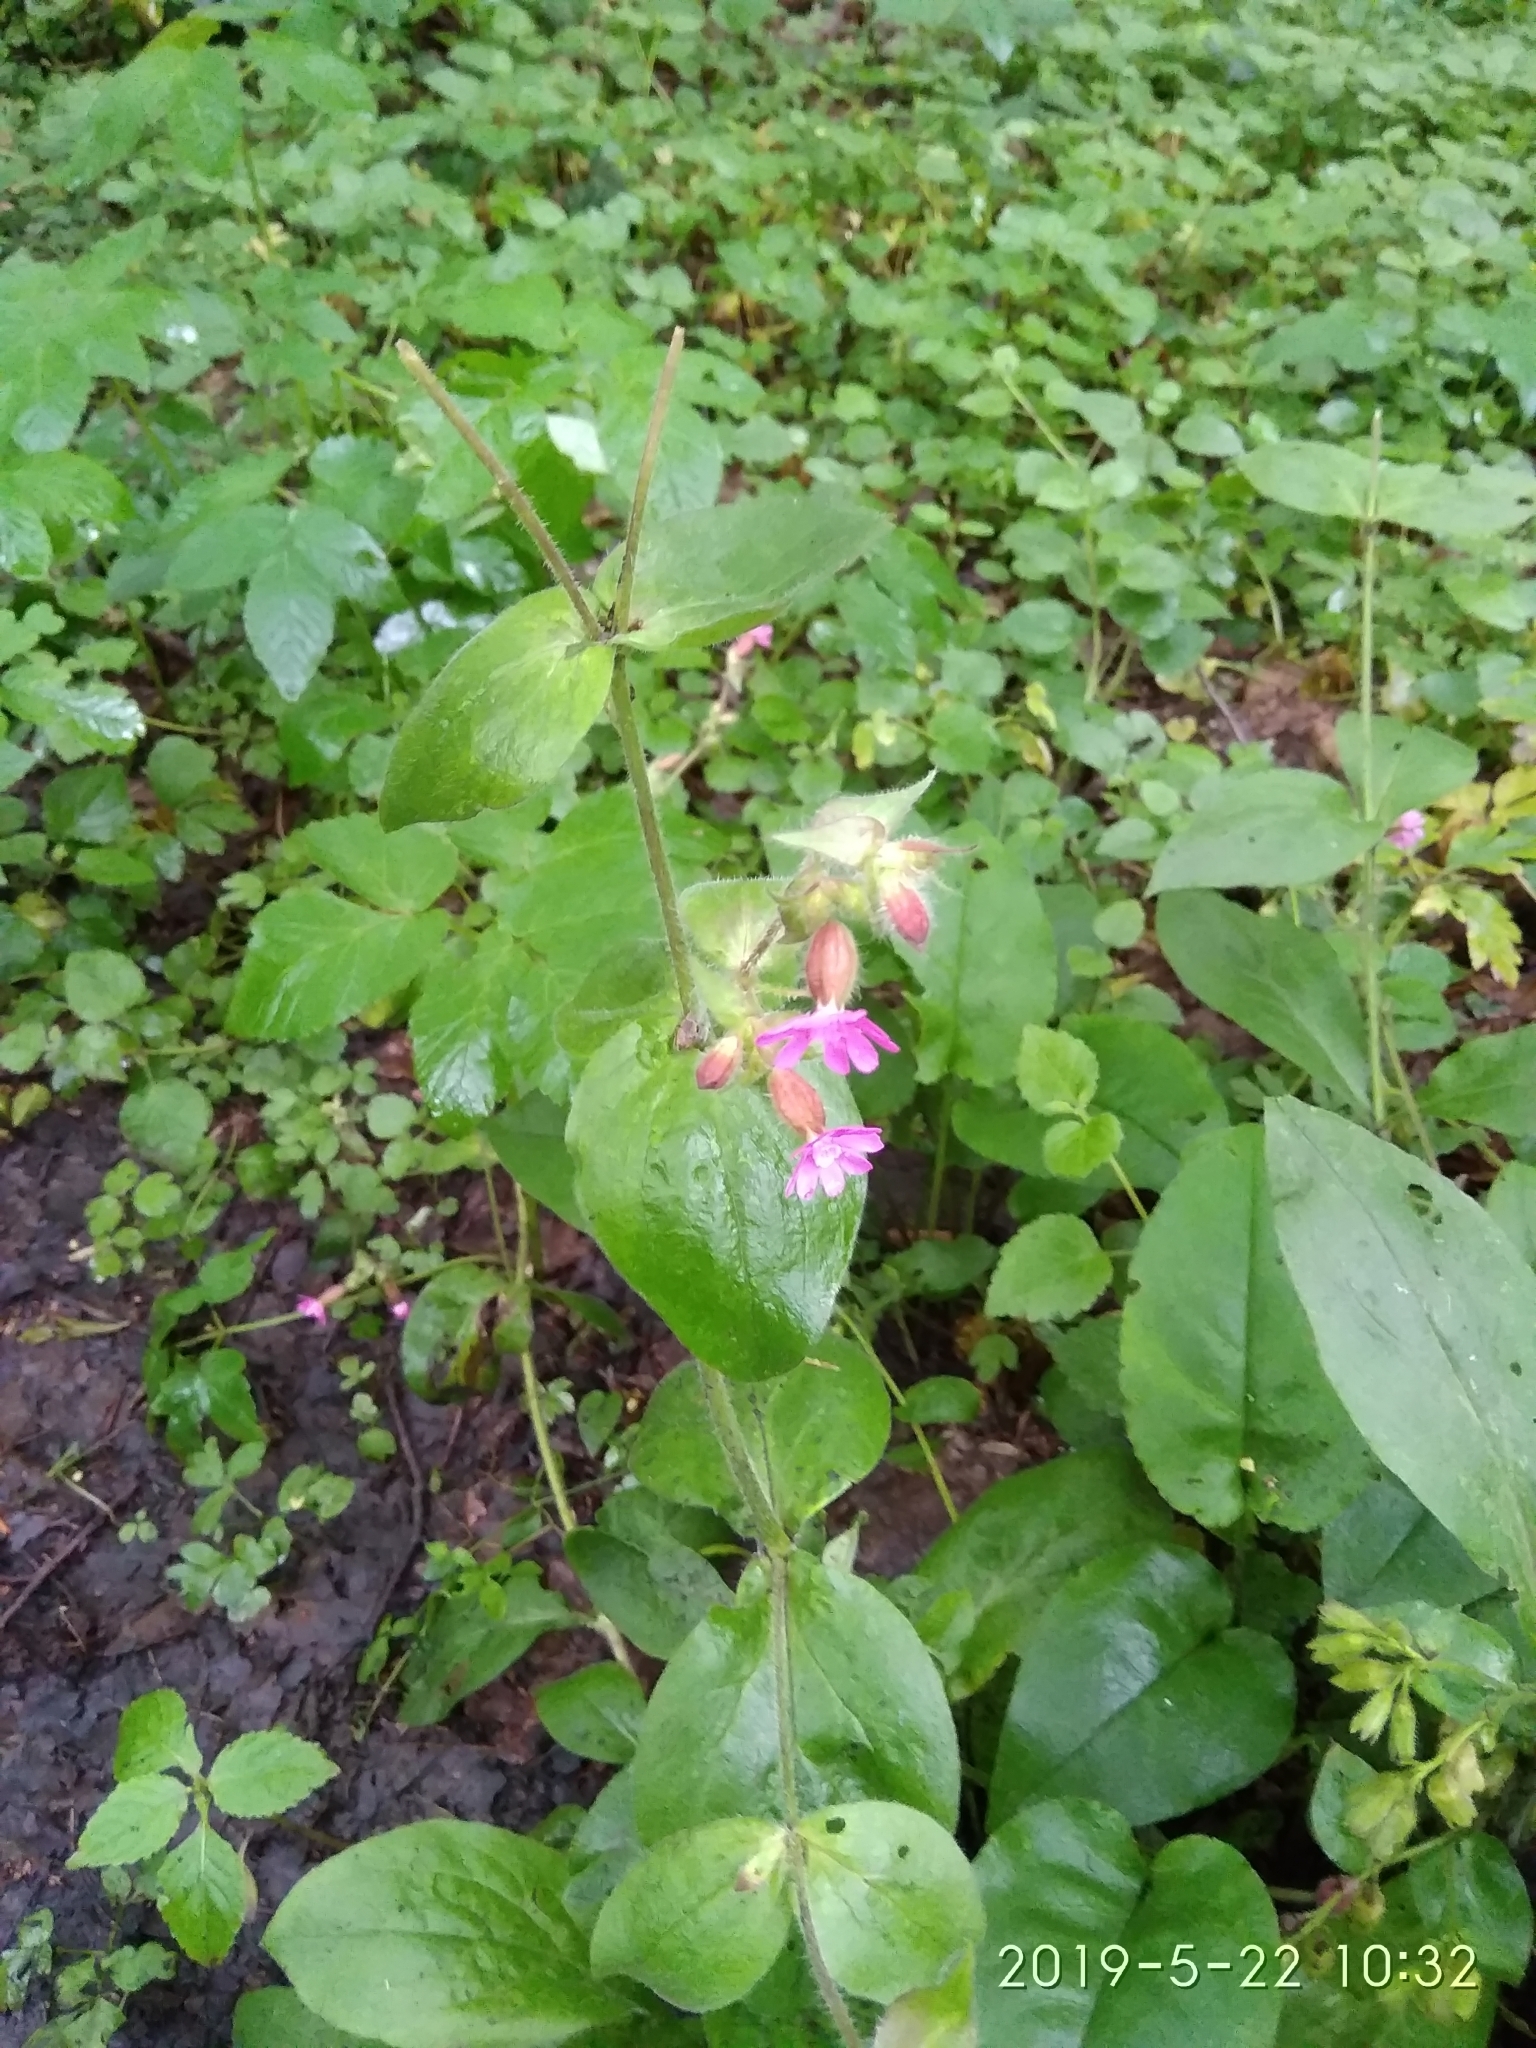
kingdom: Plantae
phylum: Tracheophyta
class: Magnoliopsida
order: Caryophyllales
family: Caryophyllaceae
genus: Silene
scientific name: Silene dioica
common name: Red campion
